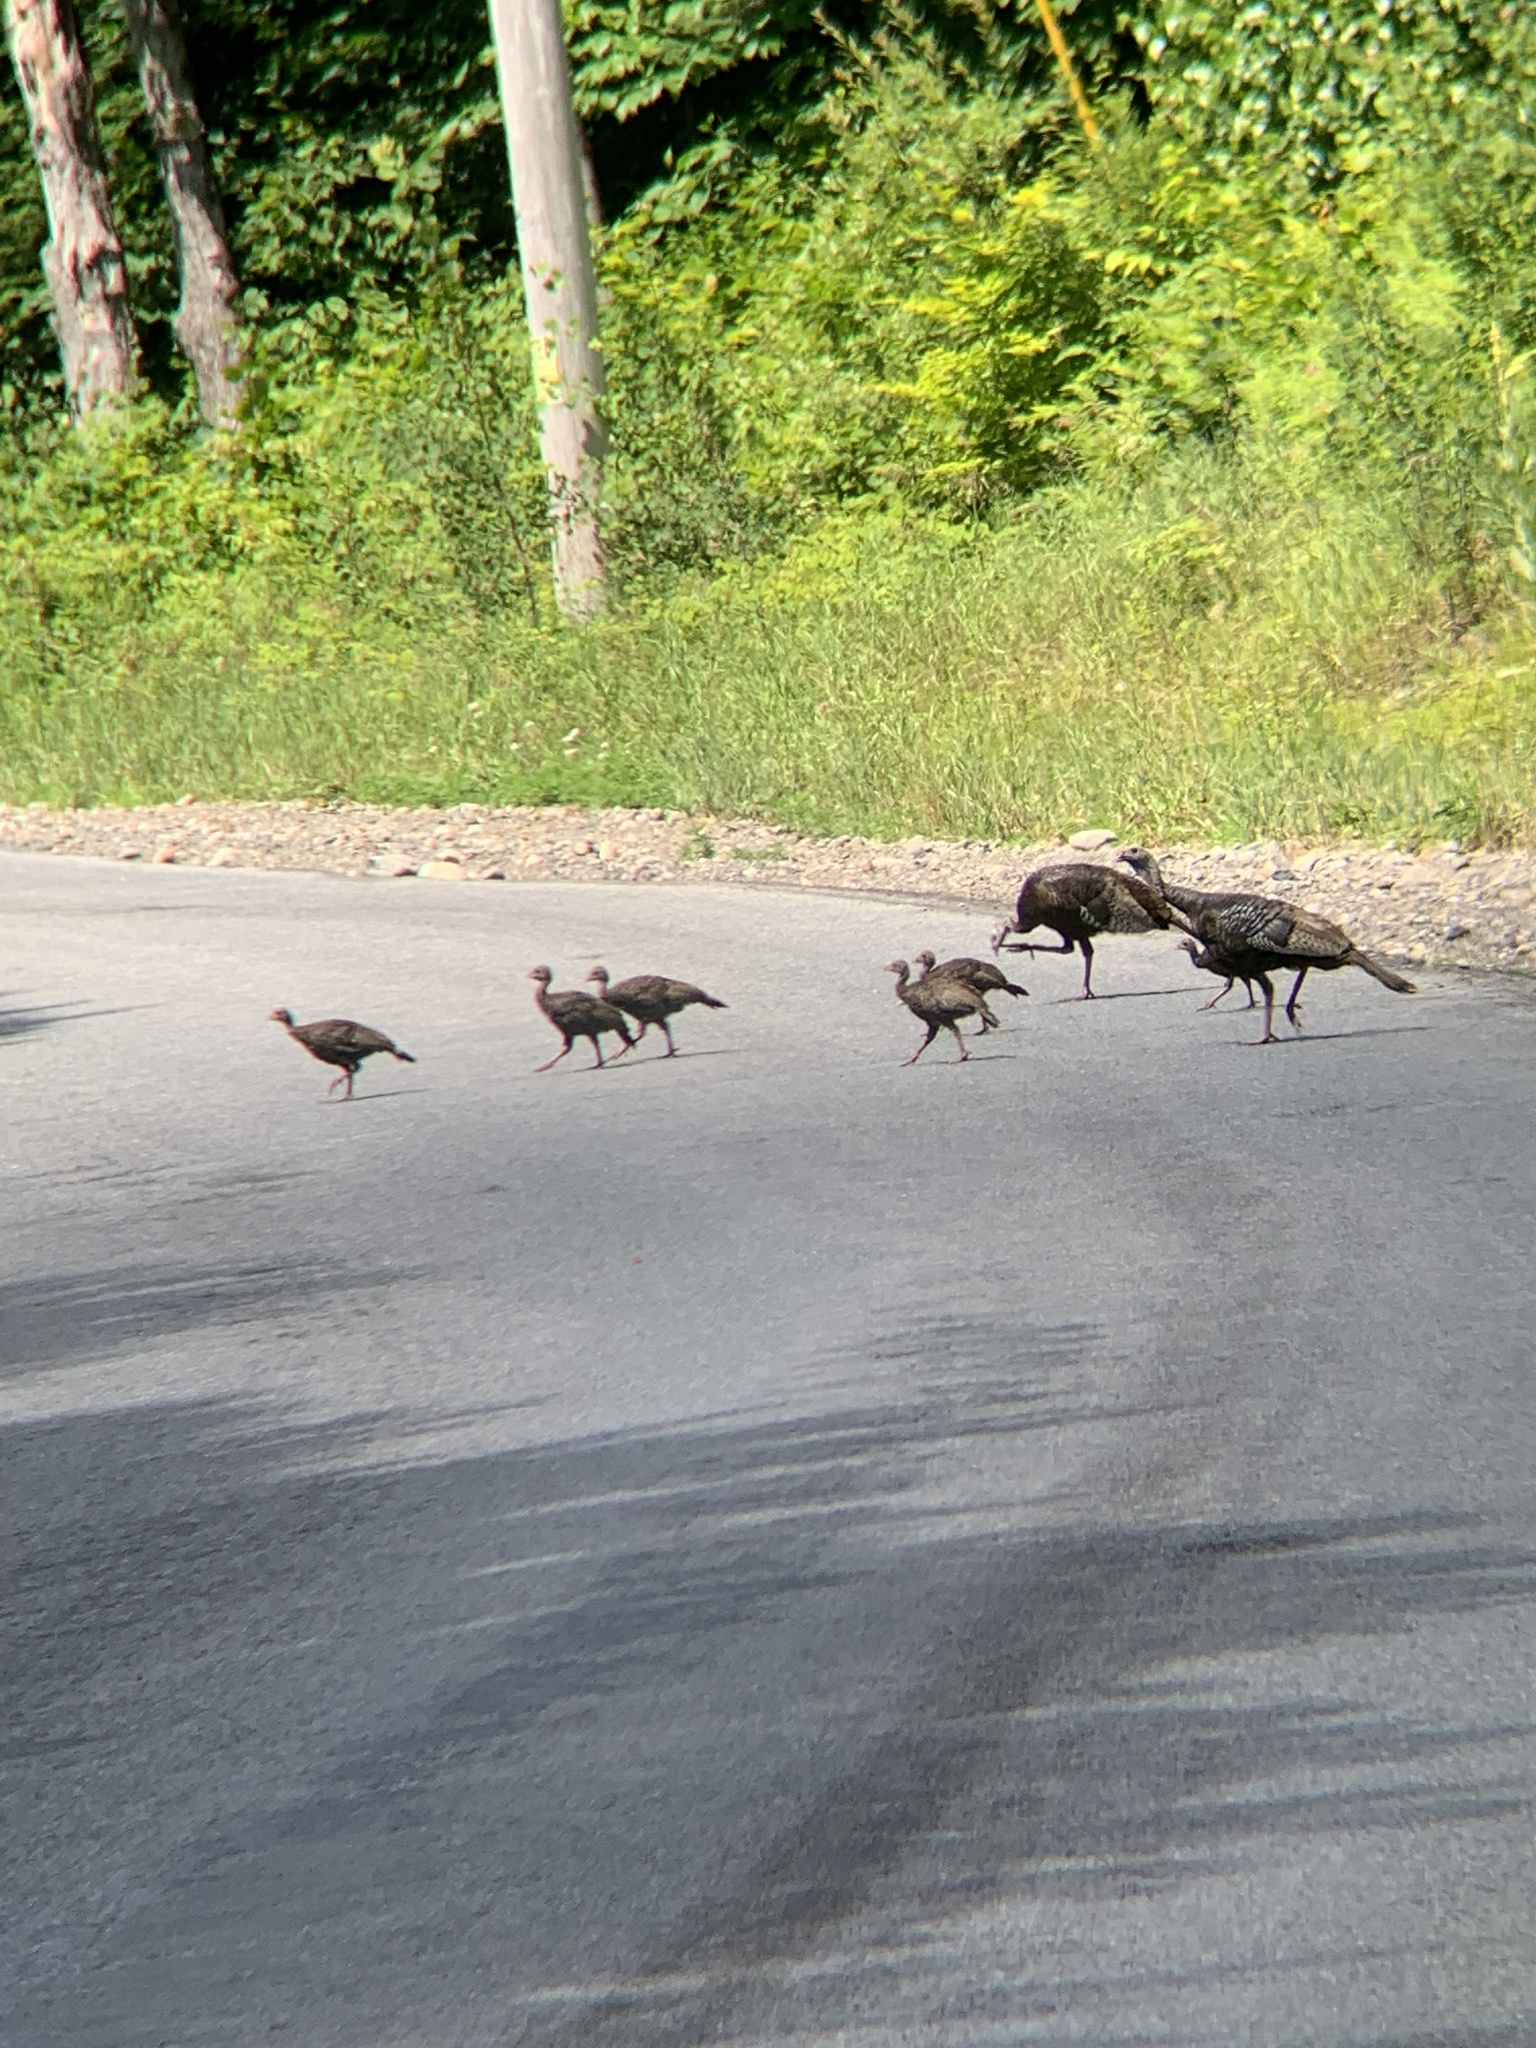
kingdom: Animalia
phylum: Chordata
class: Aves
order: Galliformes
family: Phasianidae
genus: Meleagris
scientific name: Meleagris gallopavo
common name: Wild turkey
